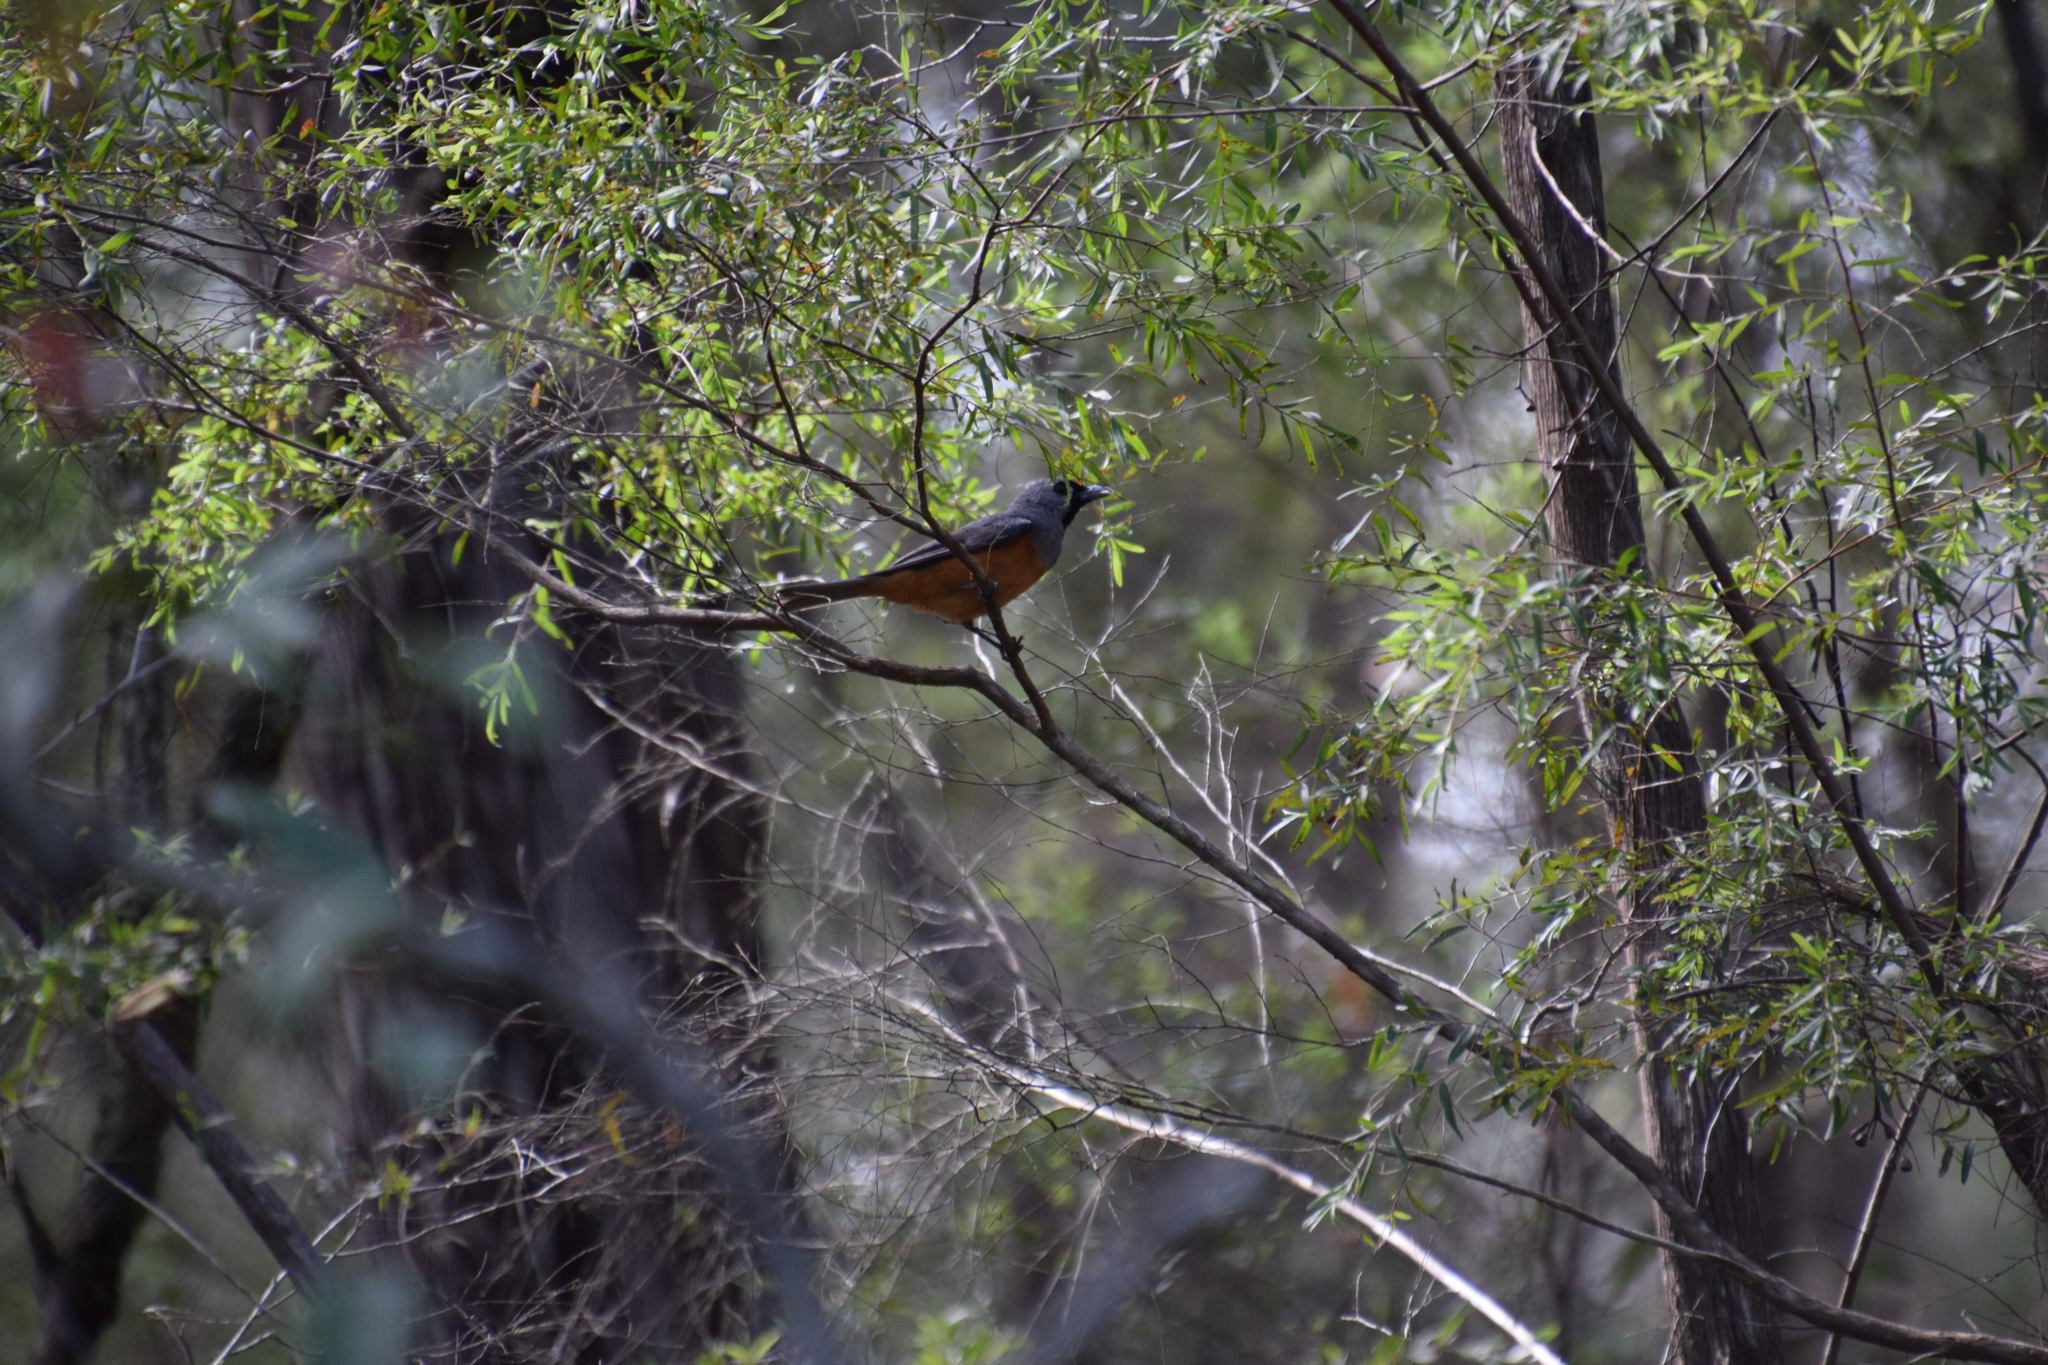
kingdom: Animalia
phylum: Chordata
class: Aves
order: Passeriformes
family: Monarchidae
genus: Monarcha
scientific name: Monarcha melanopsis
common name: Black-faced monarch
